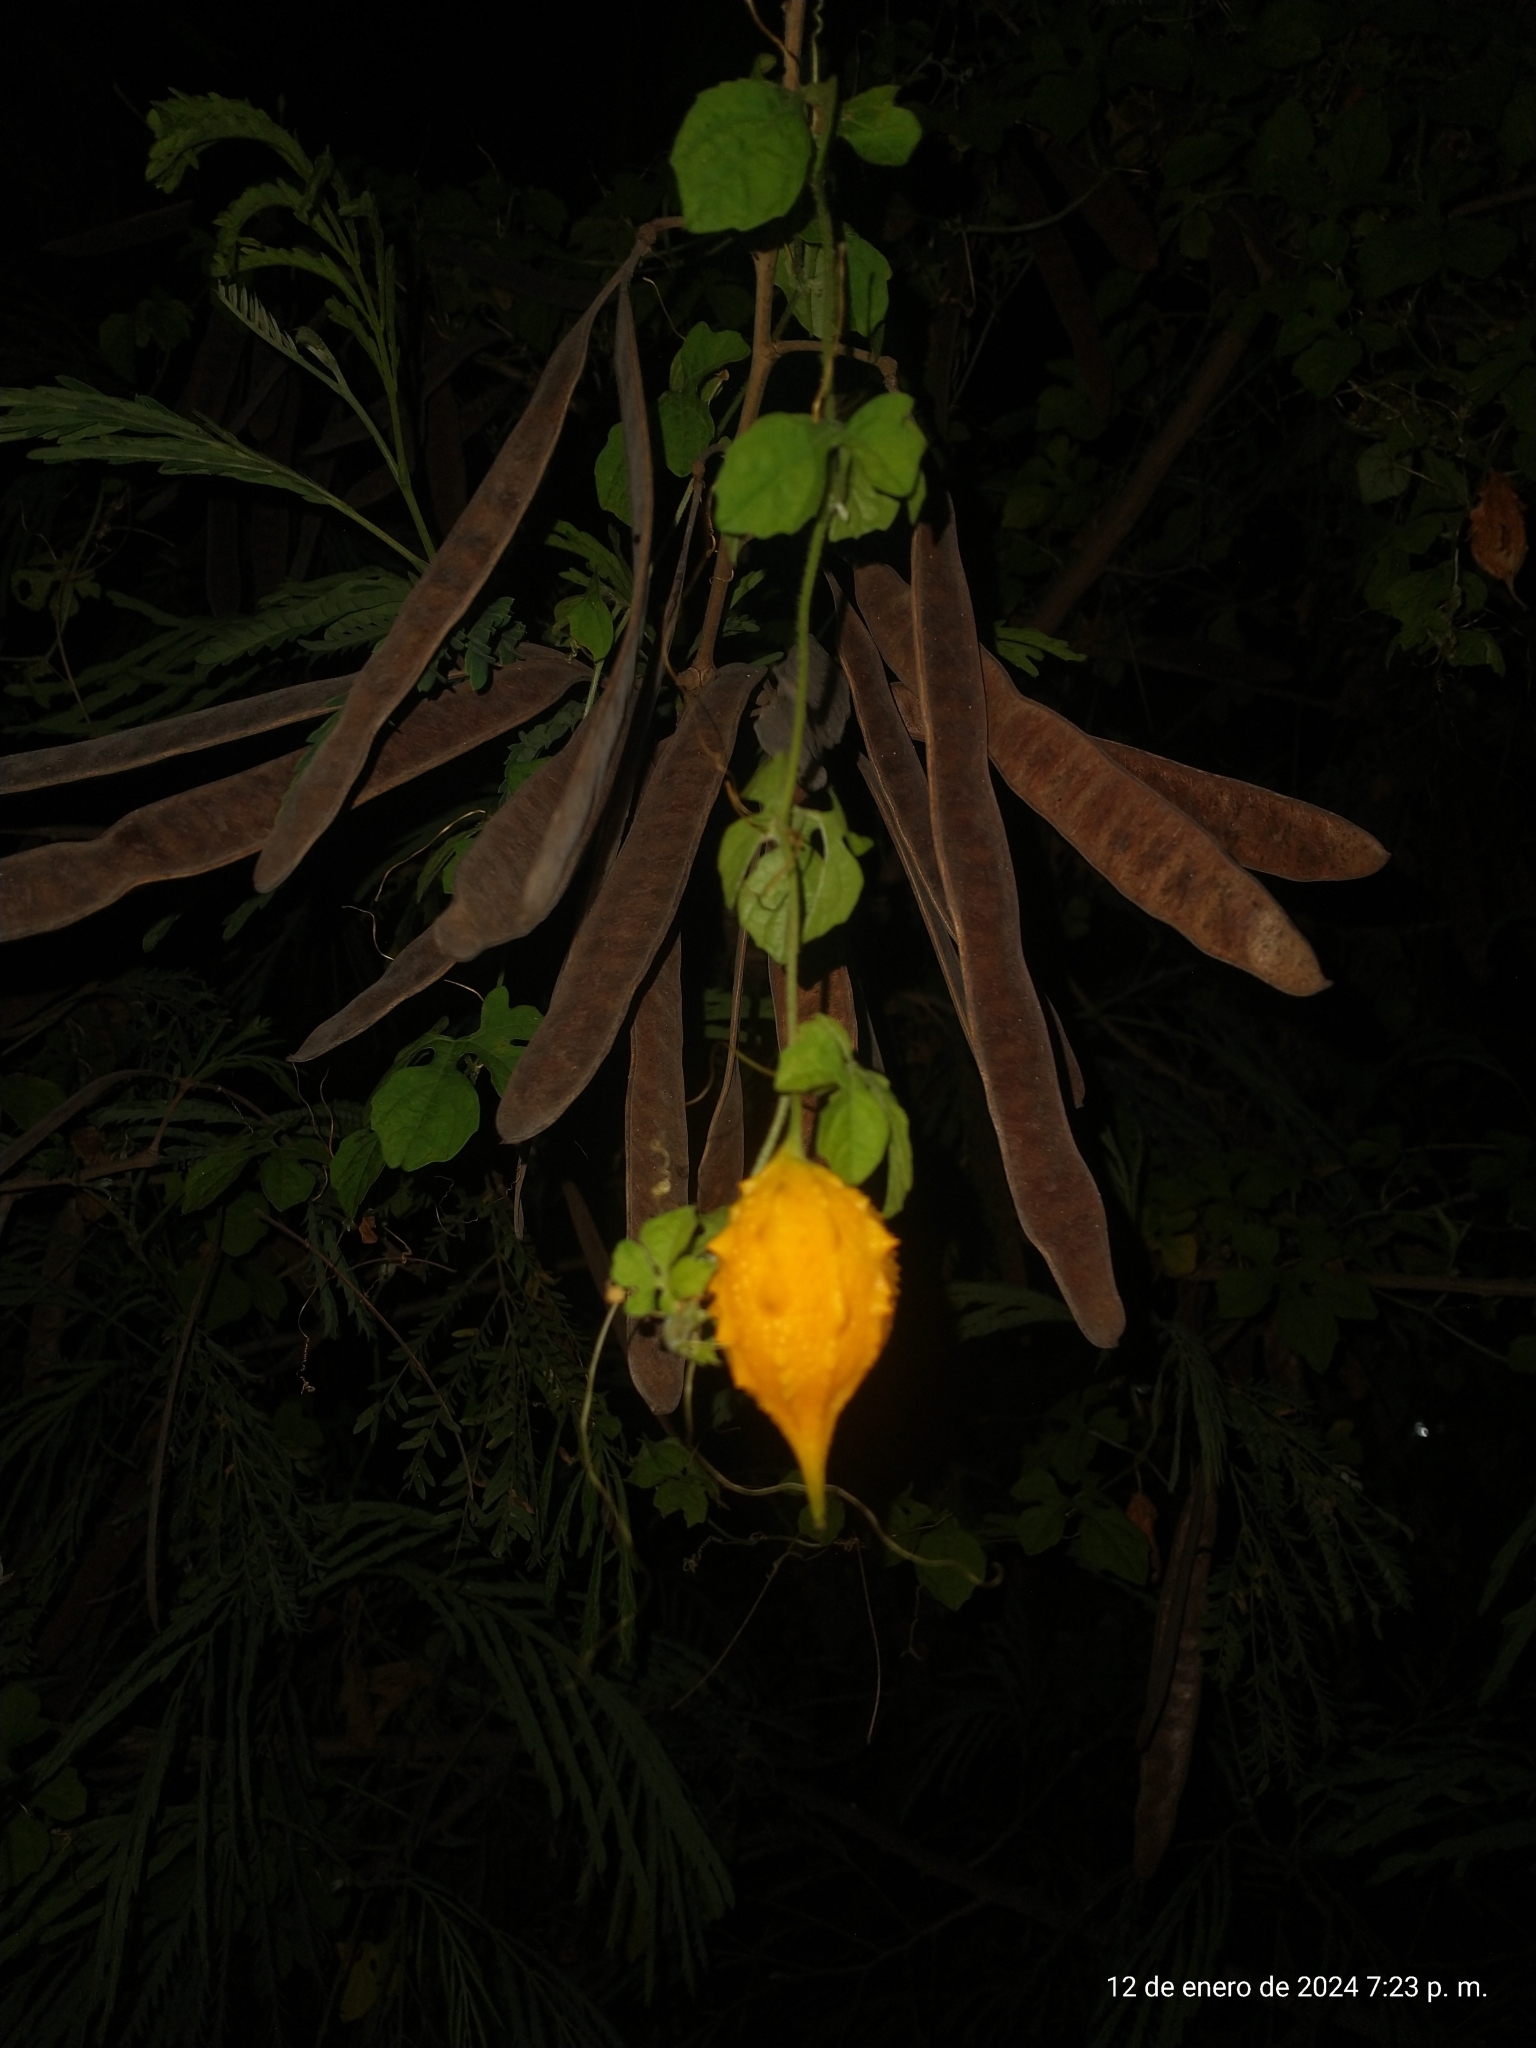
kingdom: Plantae
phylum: Tracheophyta
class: Magnoliopsida
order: Cucurbitales
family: Cucurbitaceae
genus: Momordica
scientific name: Momordica charantia
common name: Balsampear
